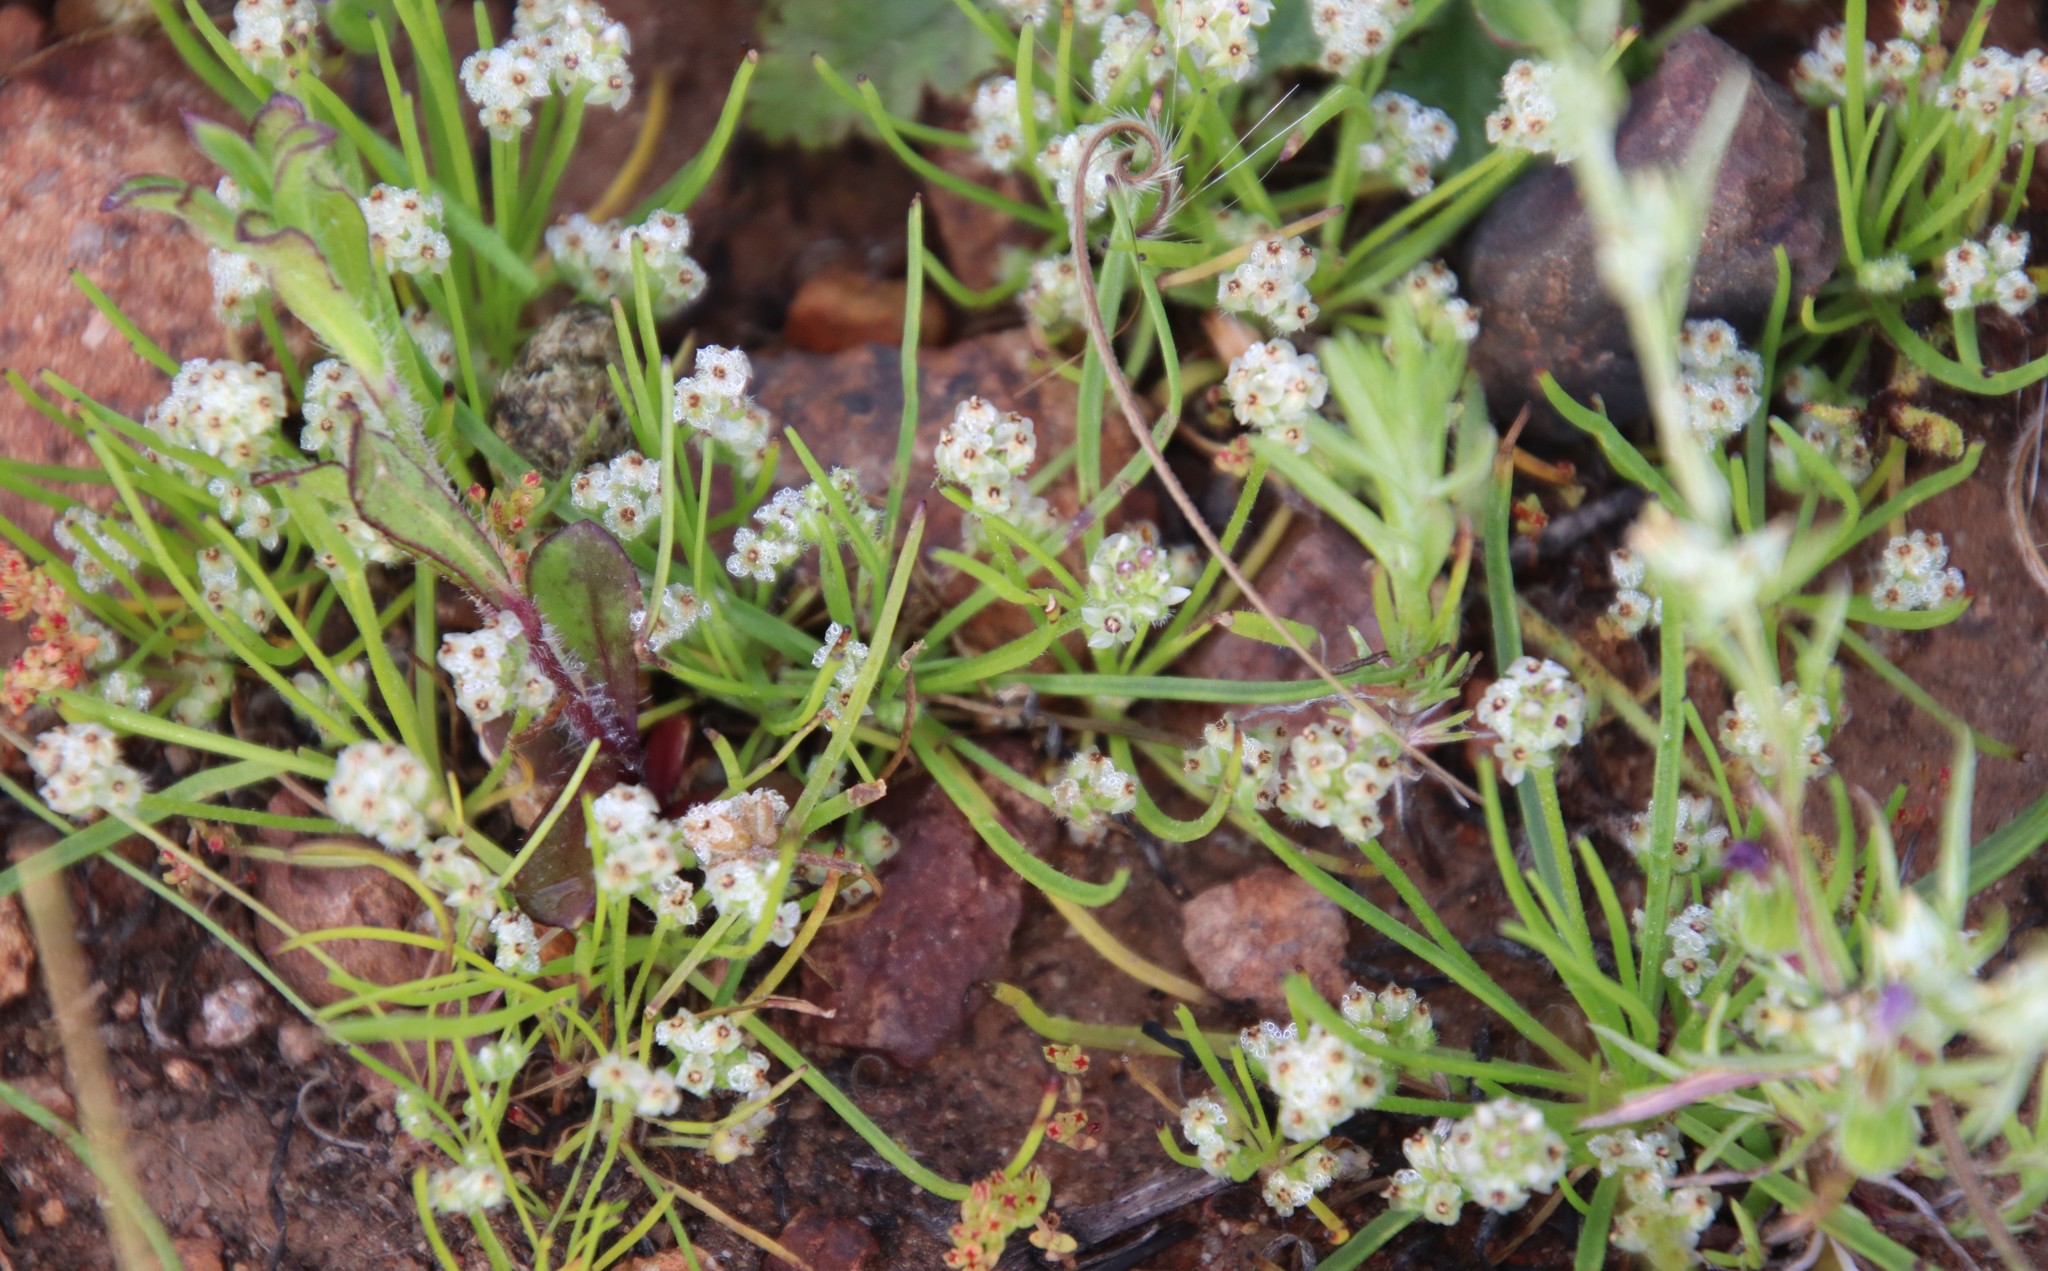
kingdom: Plantae
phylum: Tracheophyta
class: Magnoliopsida
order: Lamiales
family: Plantaginaceae
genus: Plantago
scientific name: Plantago erecta
